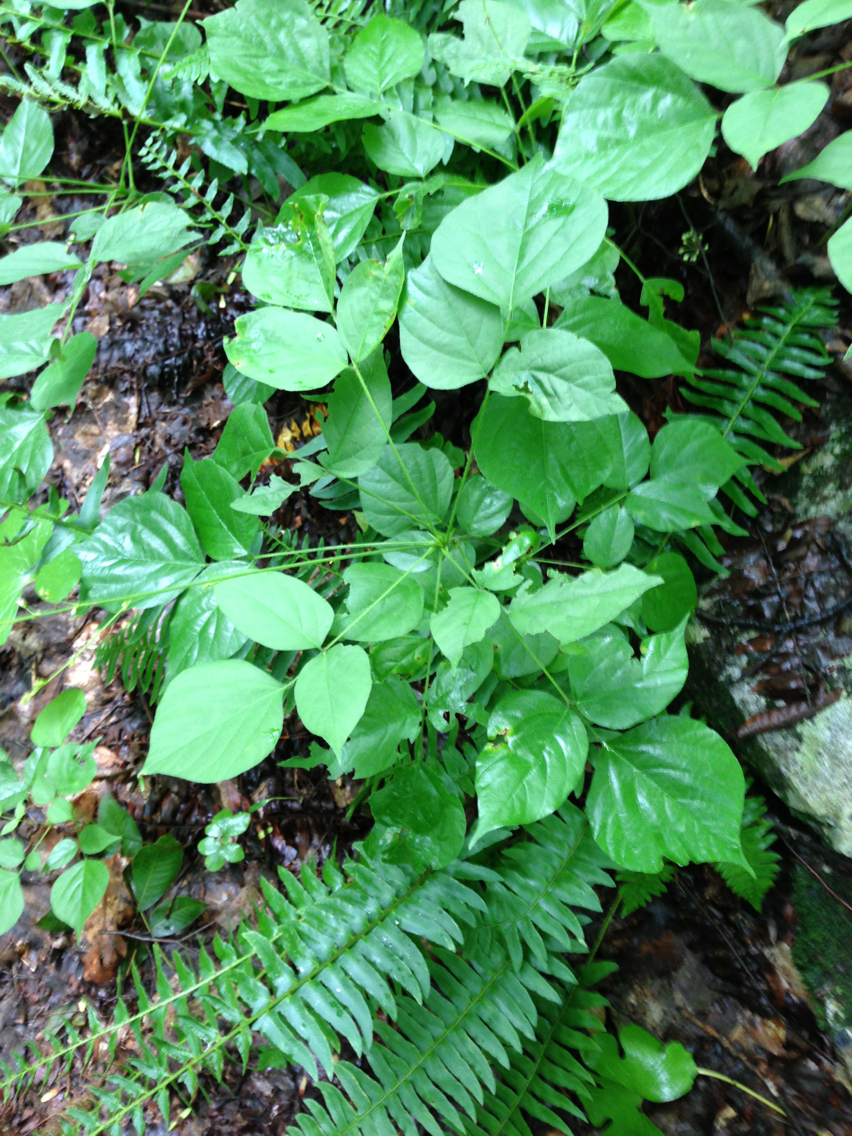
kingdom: Plantae
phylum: Tracheophyta
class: Polypodiopsida
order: Polypodiales
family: Dryopteridaceae
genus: Polystichum
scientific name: Polystichum acrostichoides
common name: Christmas fern
